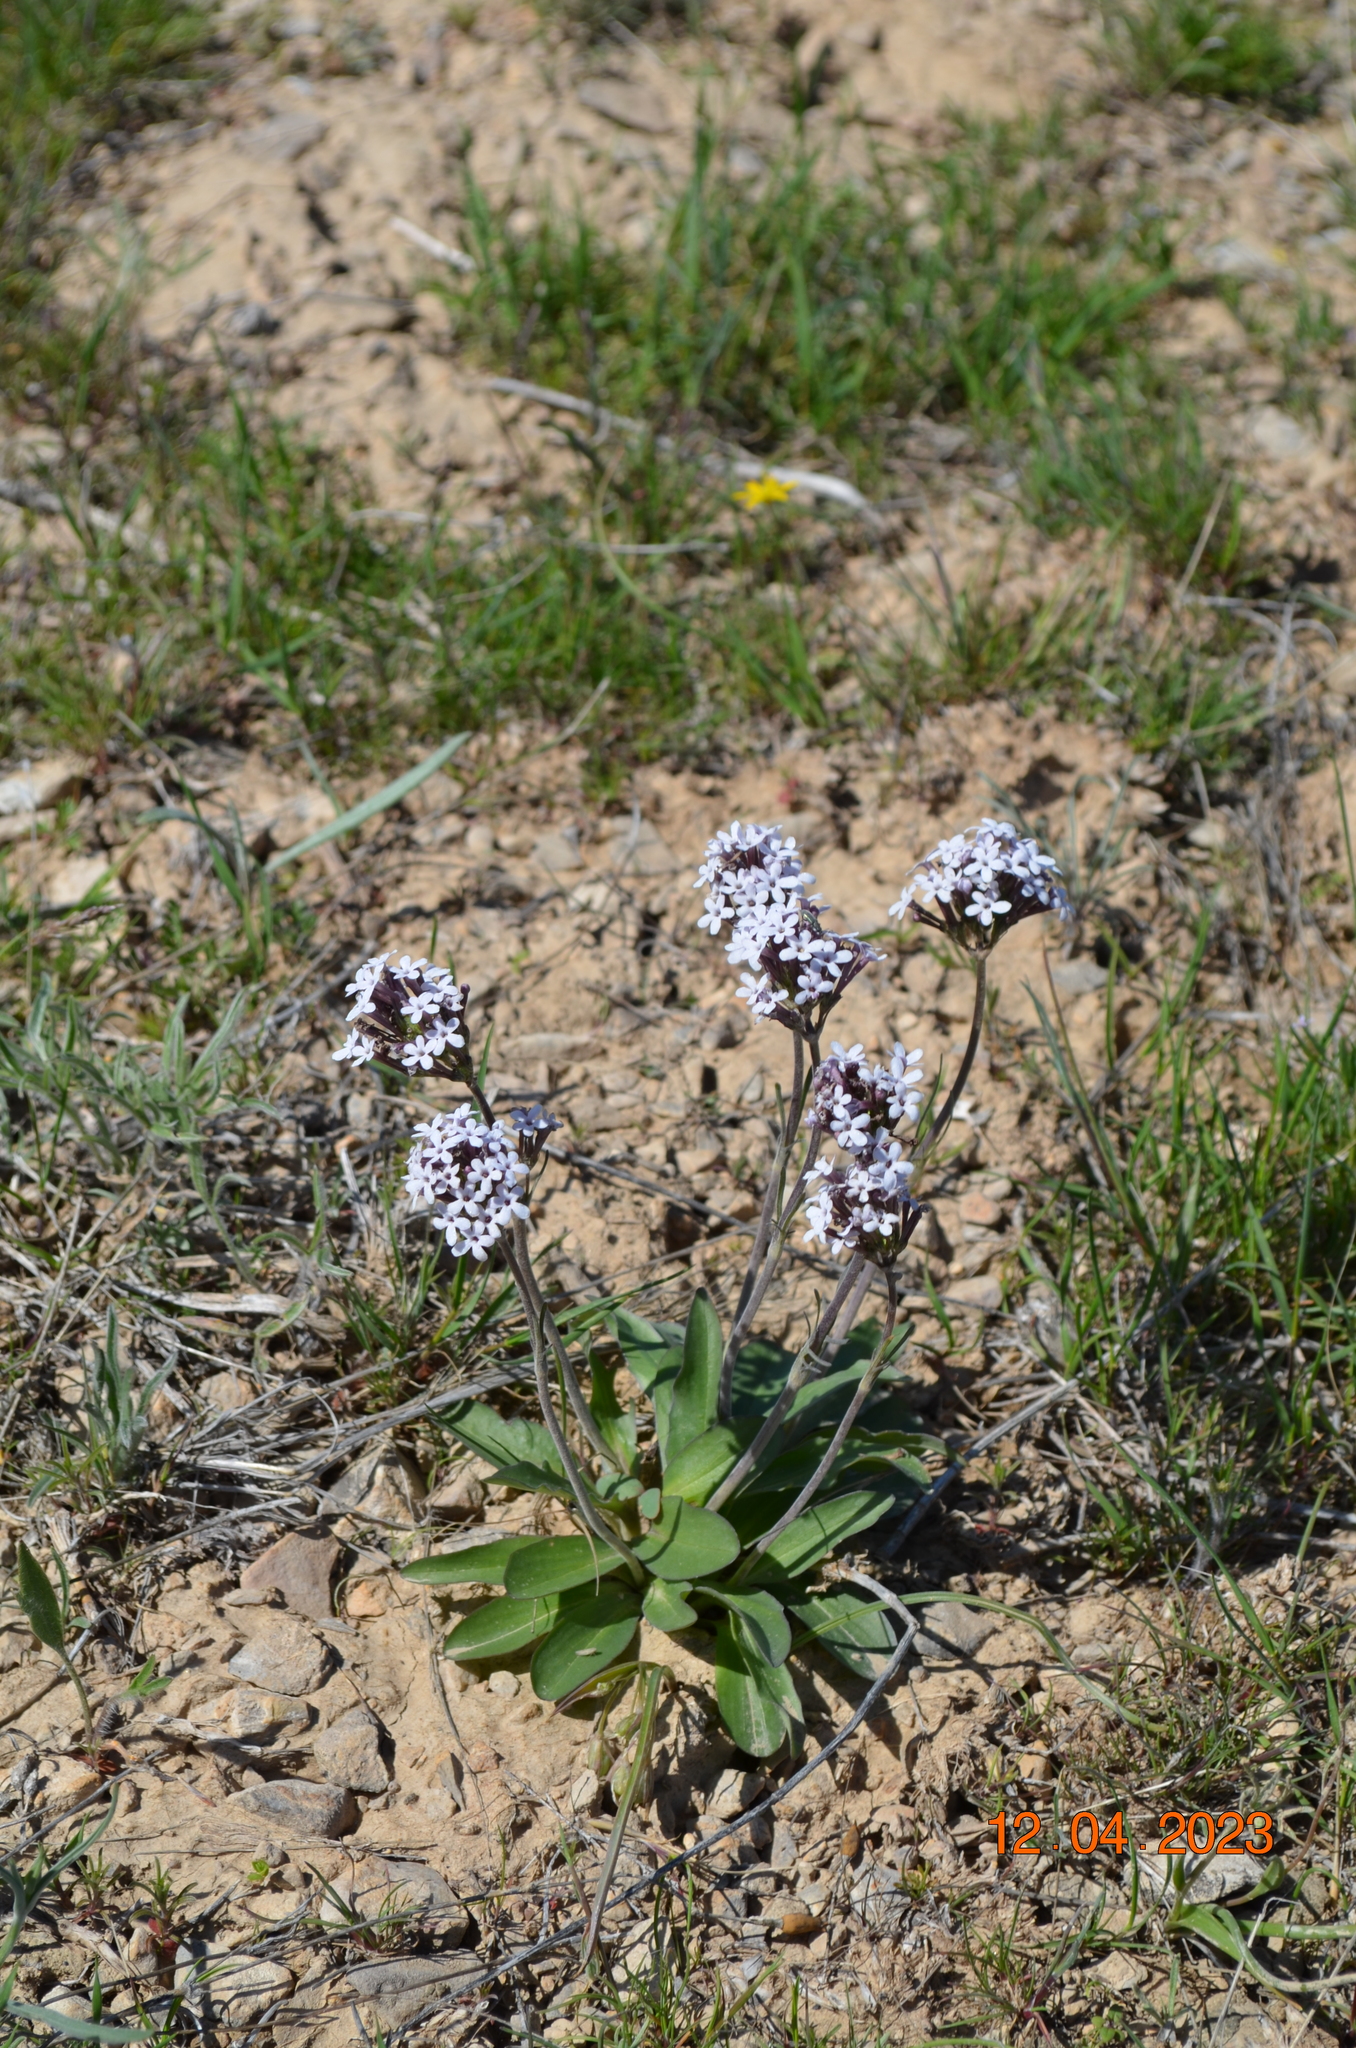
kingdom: Plantae
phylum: Tracheophyta
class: Magnoliopsida
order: Dipsacales
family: Caprifoliaceae
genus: Valeriana
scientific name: Valeriana chionophila
